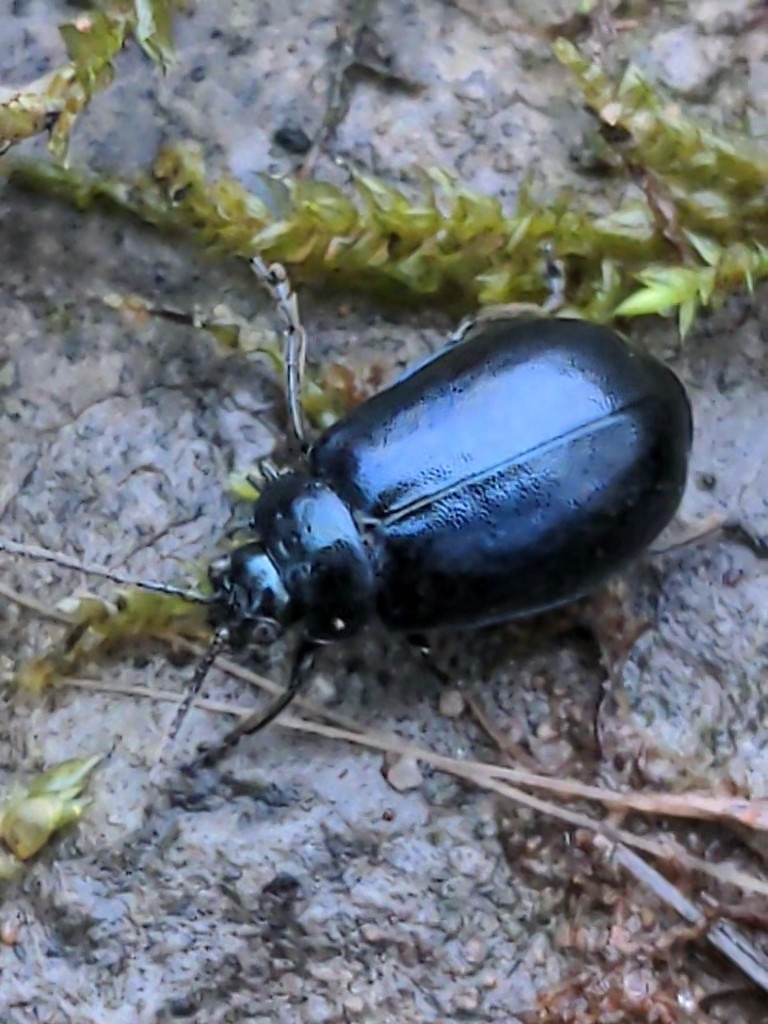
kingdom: Animalia
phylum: Arthropoda
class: Insecta
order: Coleoptera
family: Chrysomelidae
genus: Agelastica
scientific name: Agelastica alni
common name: Alder leaf beetle
